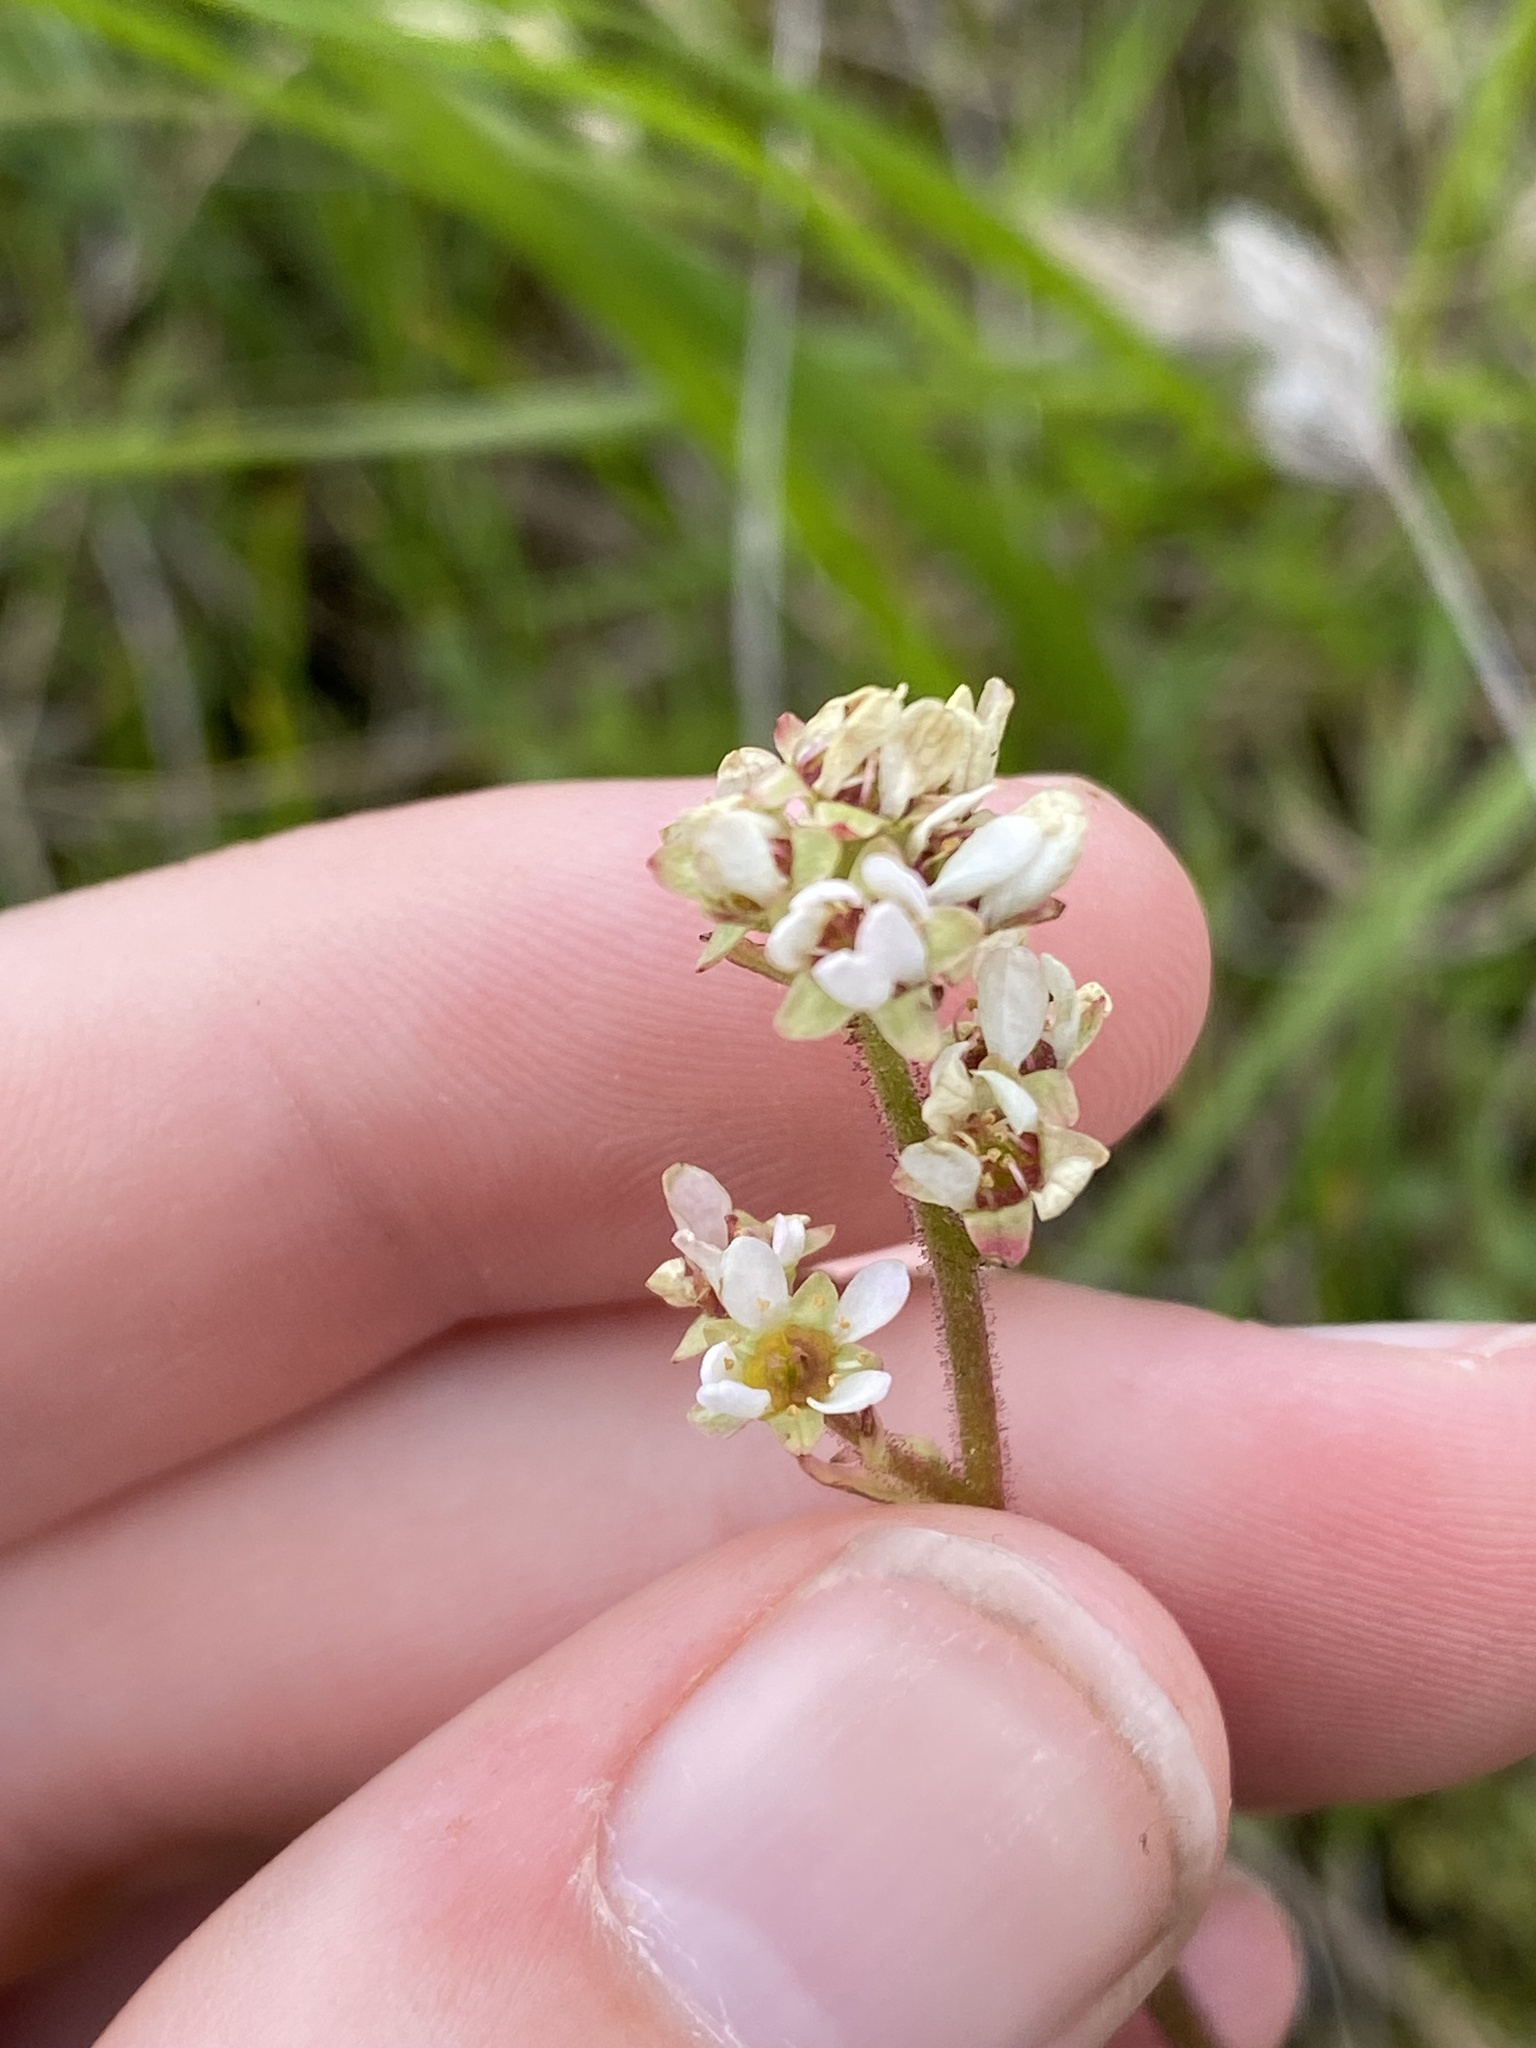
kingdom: Plantae
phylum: Tracheophyta
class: Magnoliopsida
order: Saxifragales
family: Saxifragaceae
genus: Micranthes
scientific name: Micranthes integrifolia
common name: Wholeleaf saxifrage
